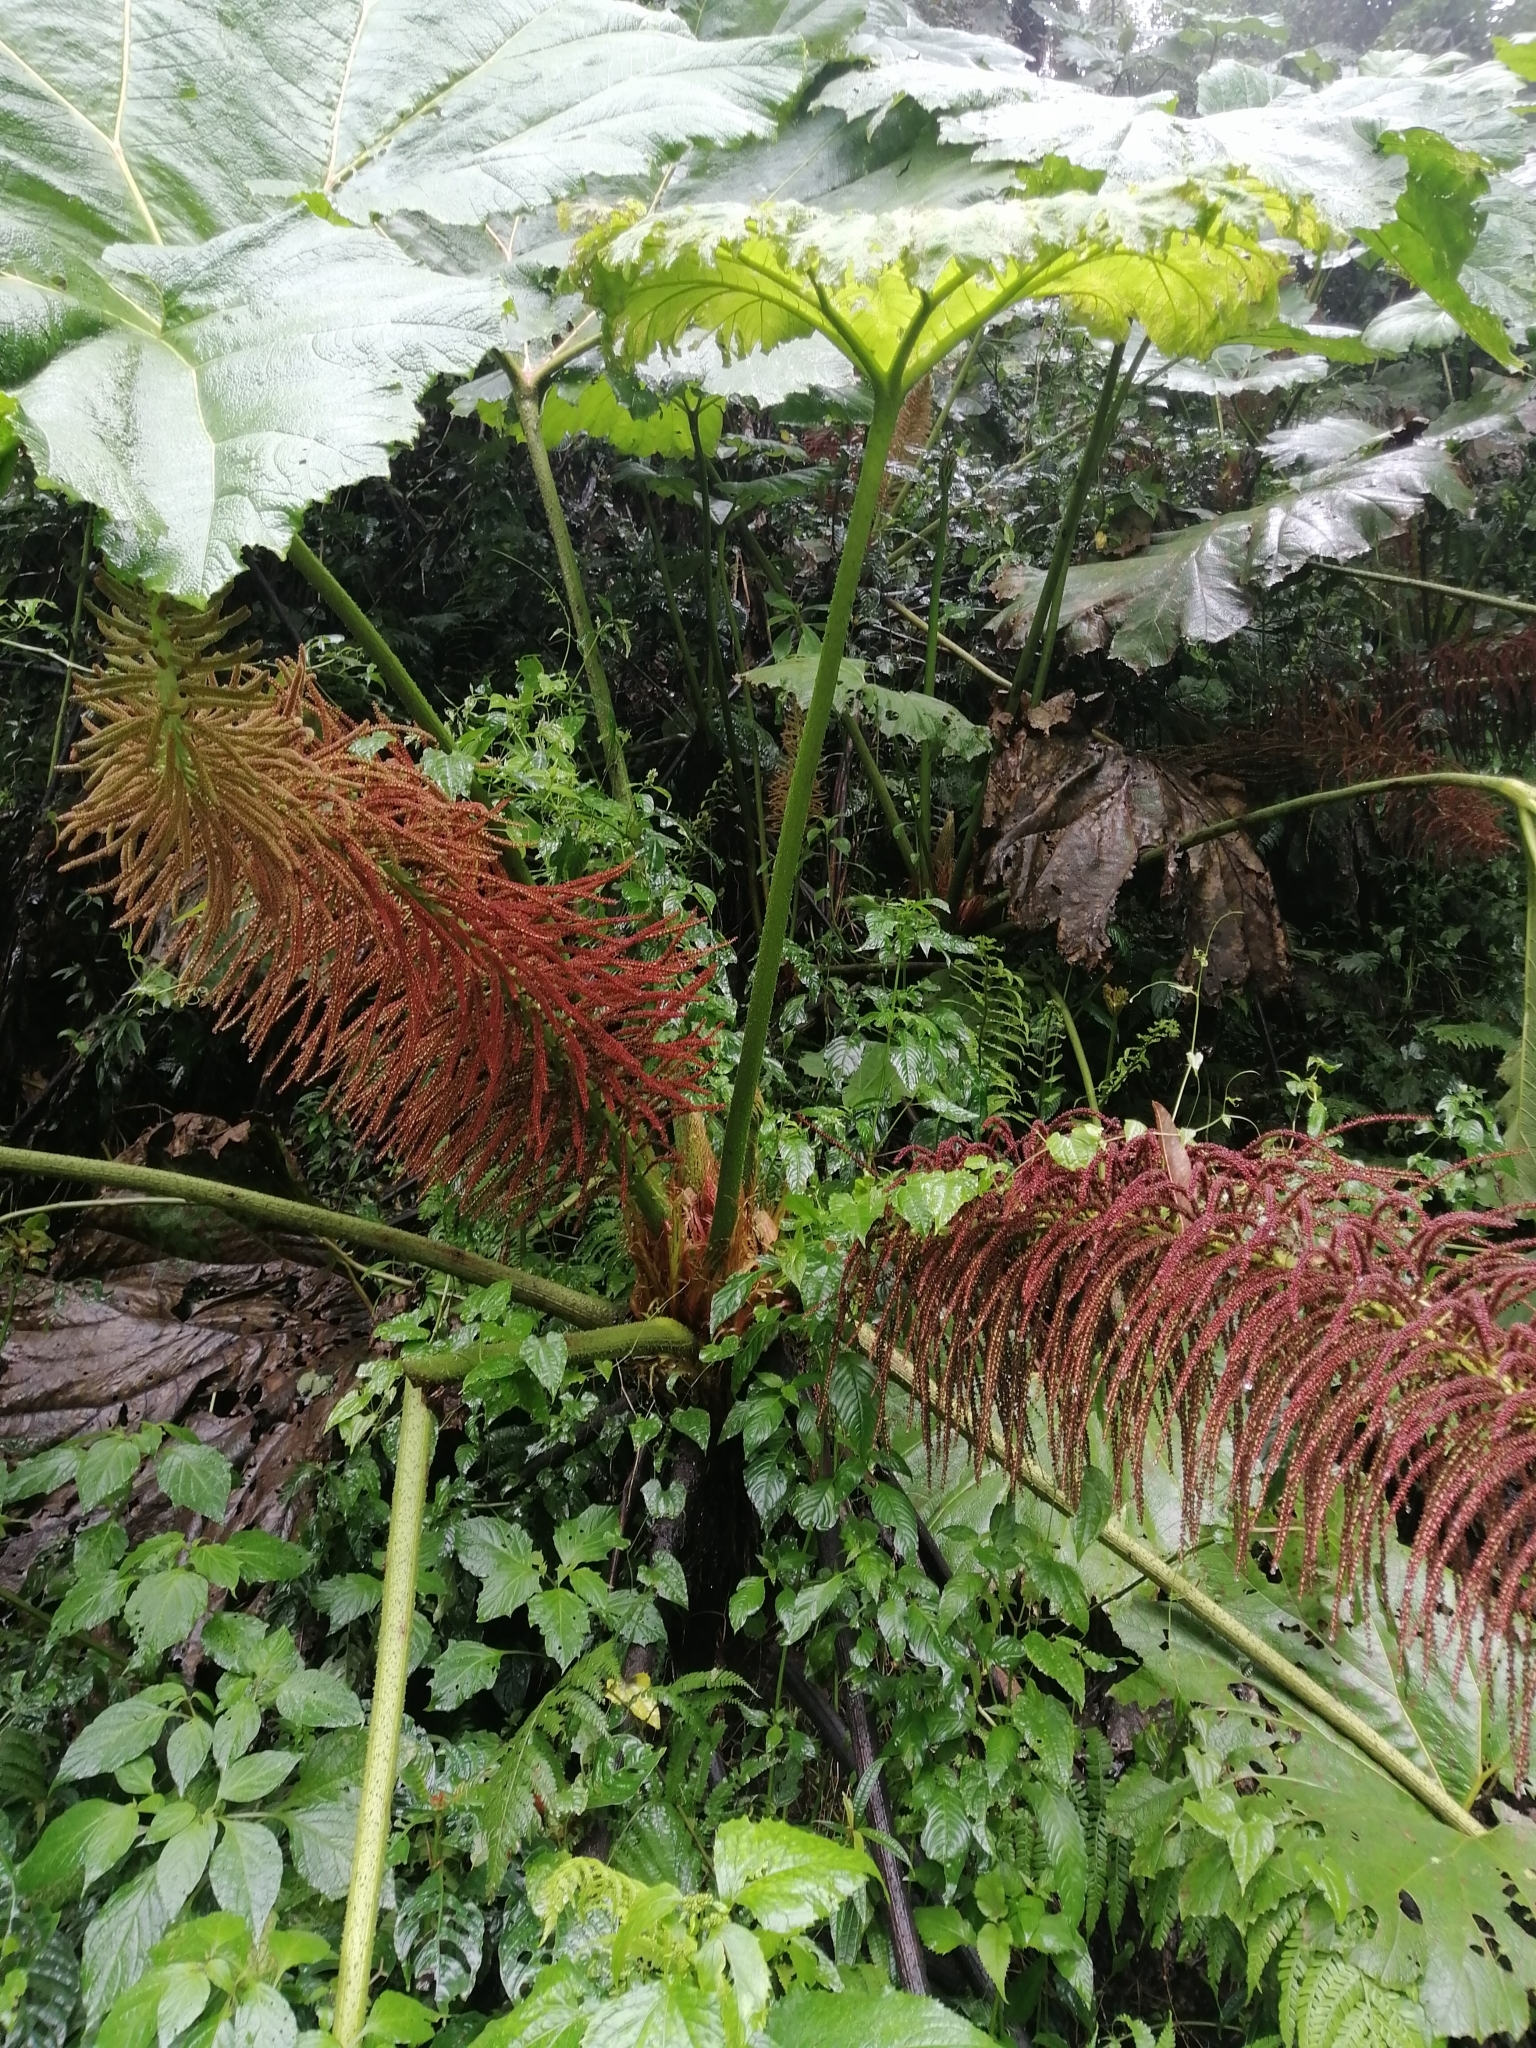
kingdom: Plantae
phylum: Tracheophyta
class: Magnoliopsida
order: Gunnerales
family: Gunneraceae
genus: Gunnera
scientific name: Gunnera mexicana
